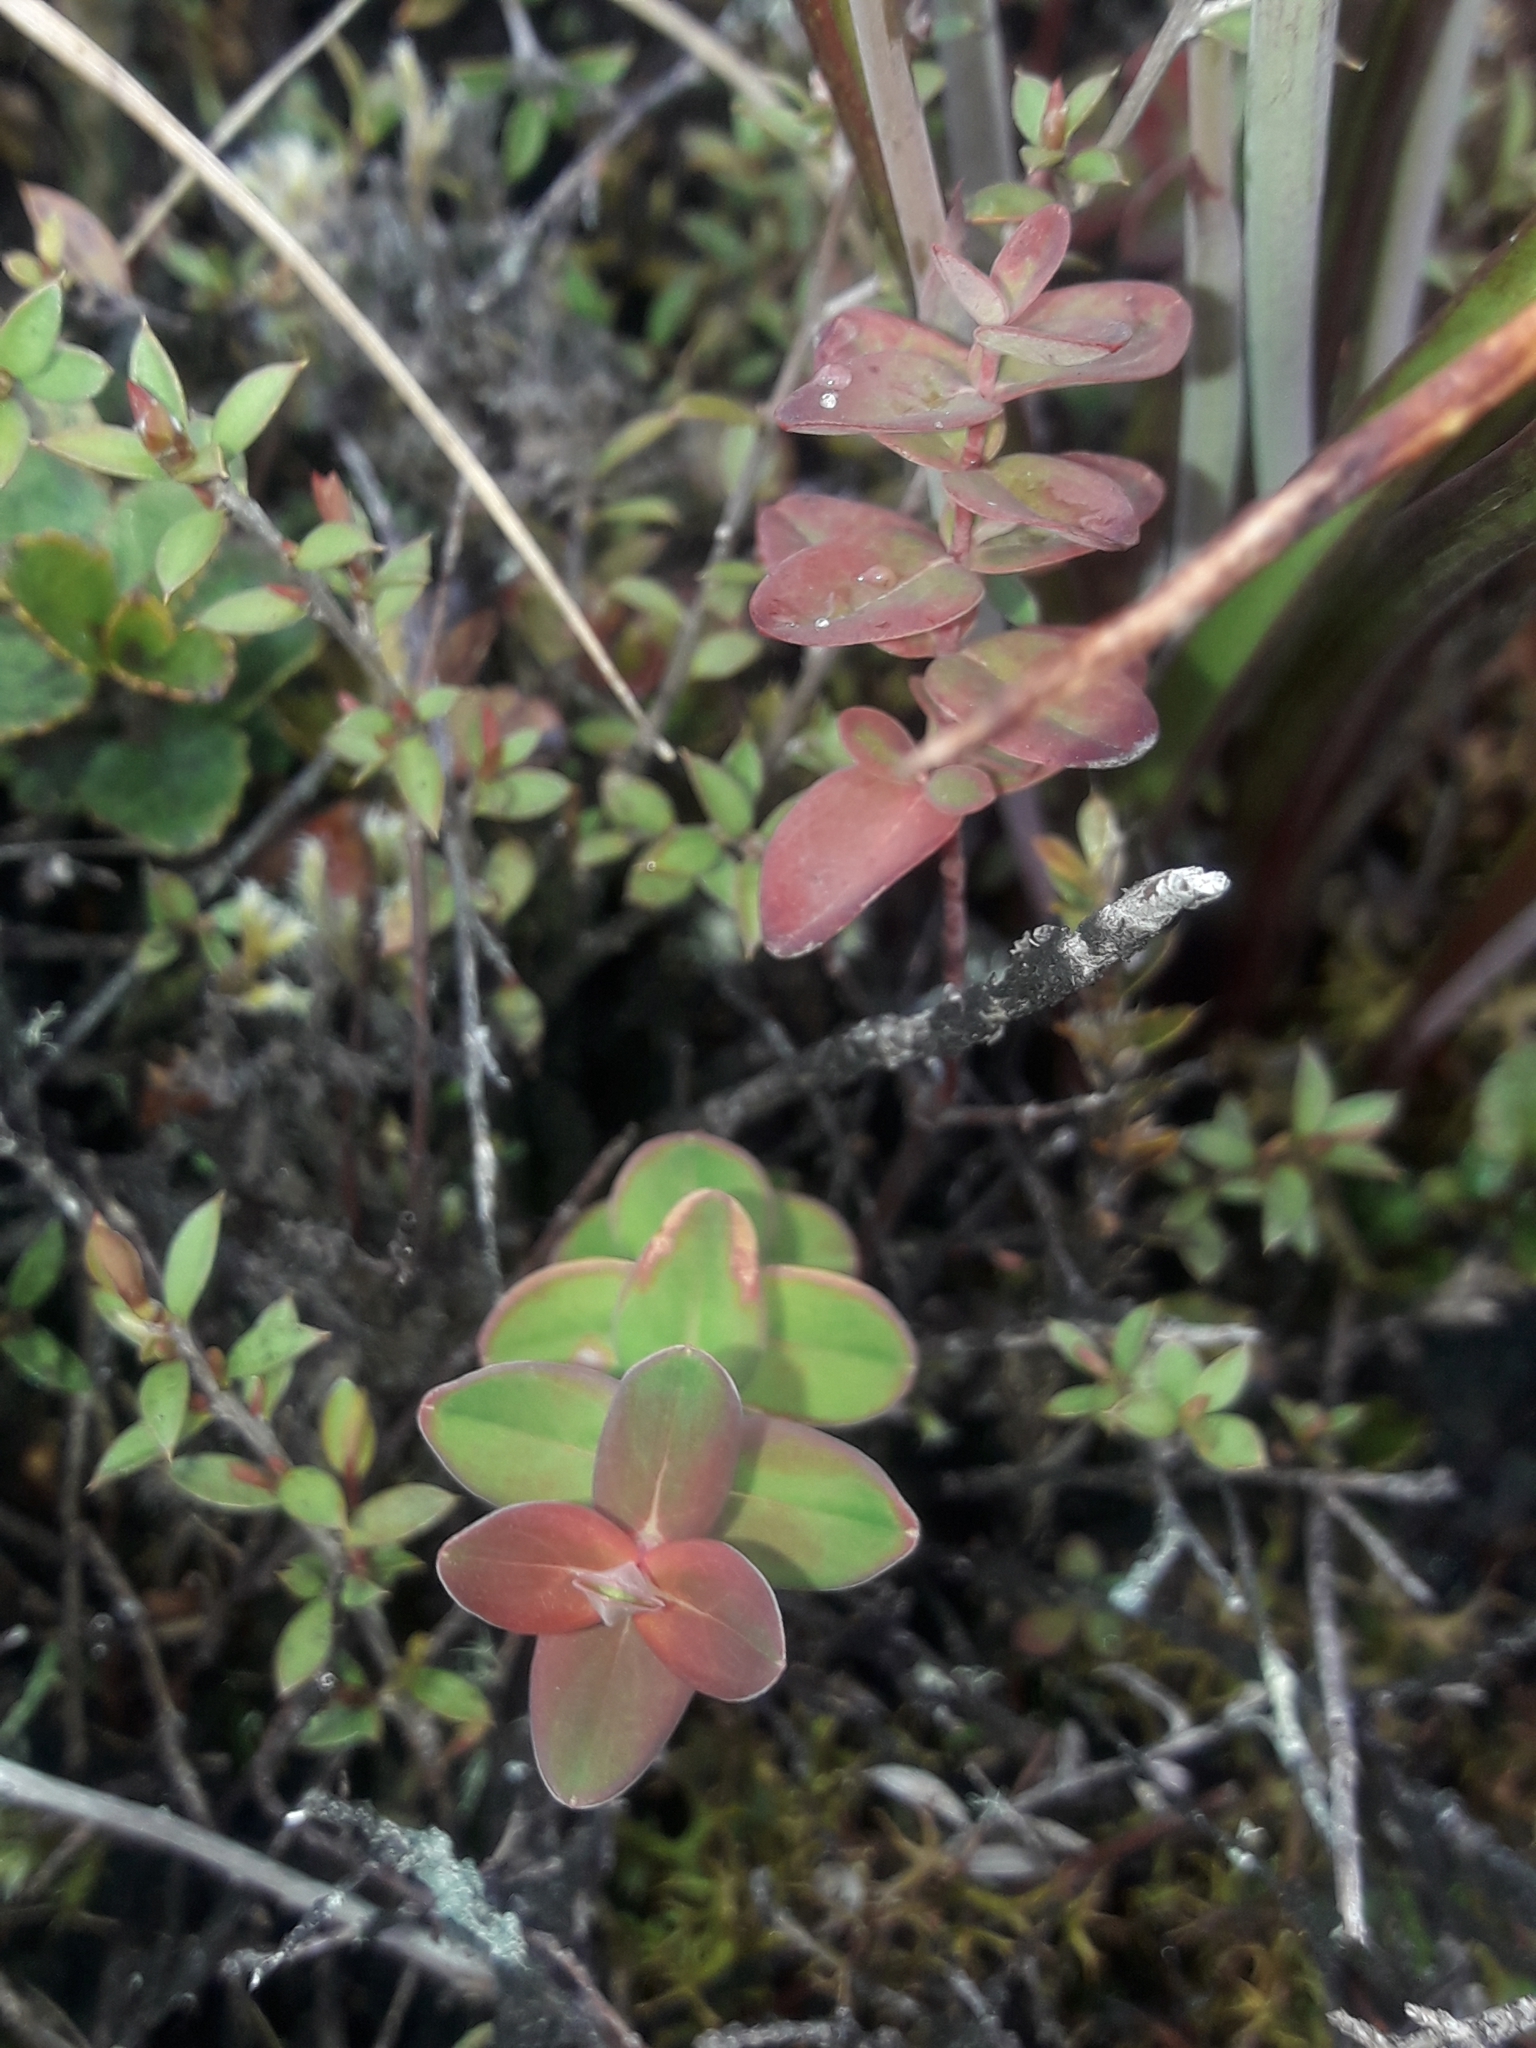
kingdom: Plantae
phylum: Tracheophyta
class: Magnoliopsida
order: Malpighiales
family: Hypericaceae
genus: Hypericum
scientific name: Hypericum pulchrum
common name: Slender st. john's-wort
